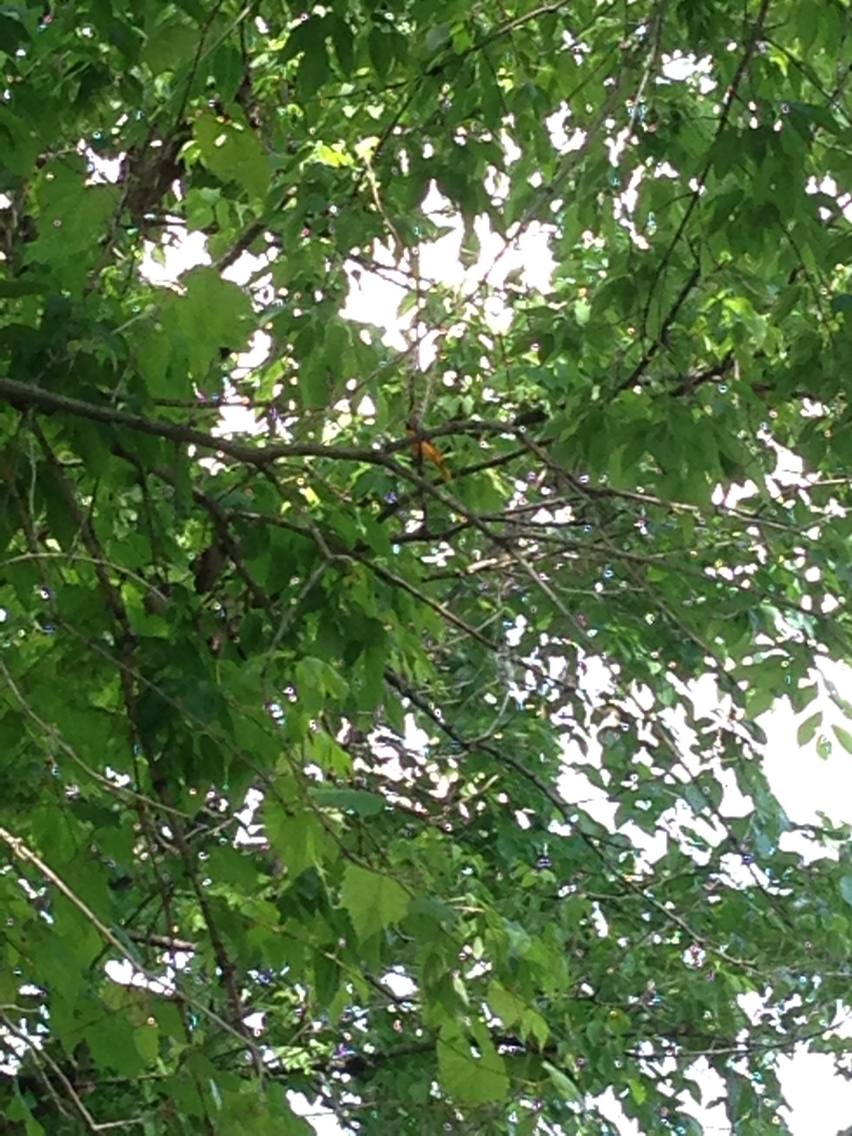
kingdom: Animalia
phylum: Chordata
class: Aves
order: Passeriformes
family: Icteridae
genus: Icterus
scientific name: Icterus galbula
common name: Baltimore oriole
